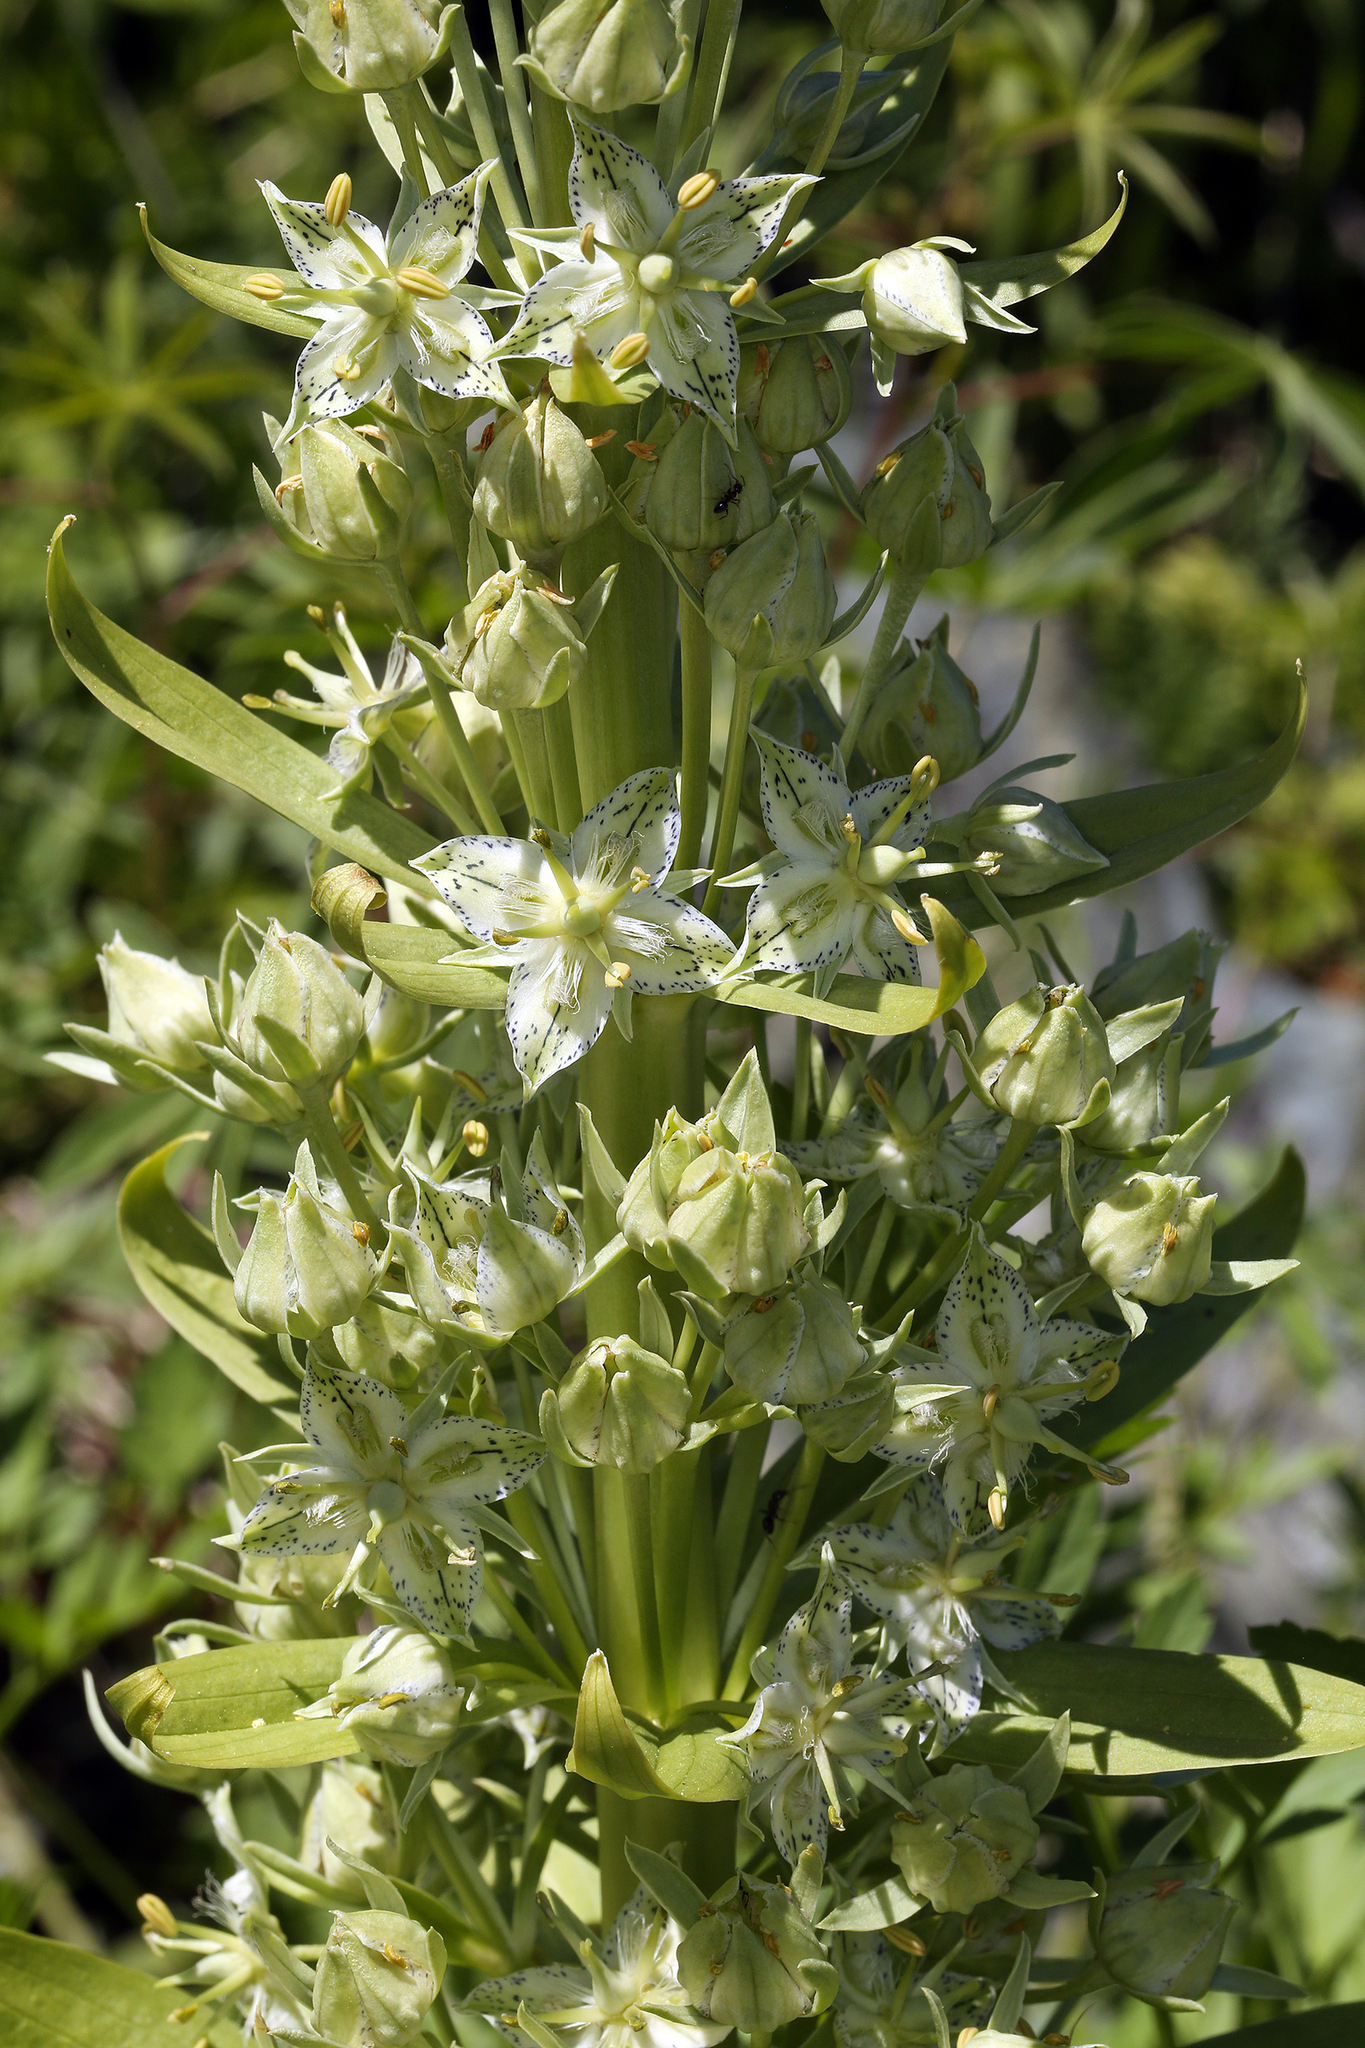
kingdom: Plantae
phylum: Tracheophyta
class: Magnoliopsida
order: Gentianales
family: Gentianaceae
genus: Frasera
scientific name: Frasera speciosa
